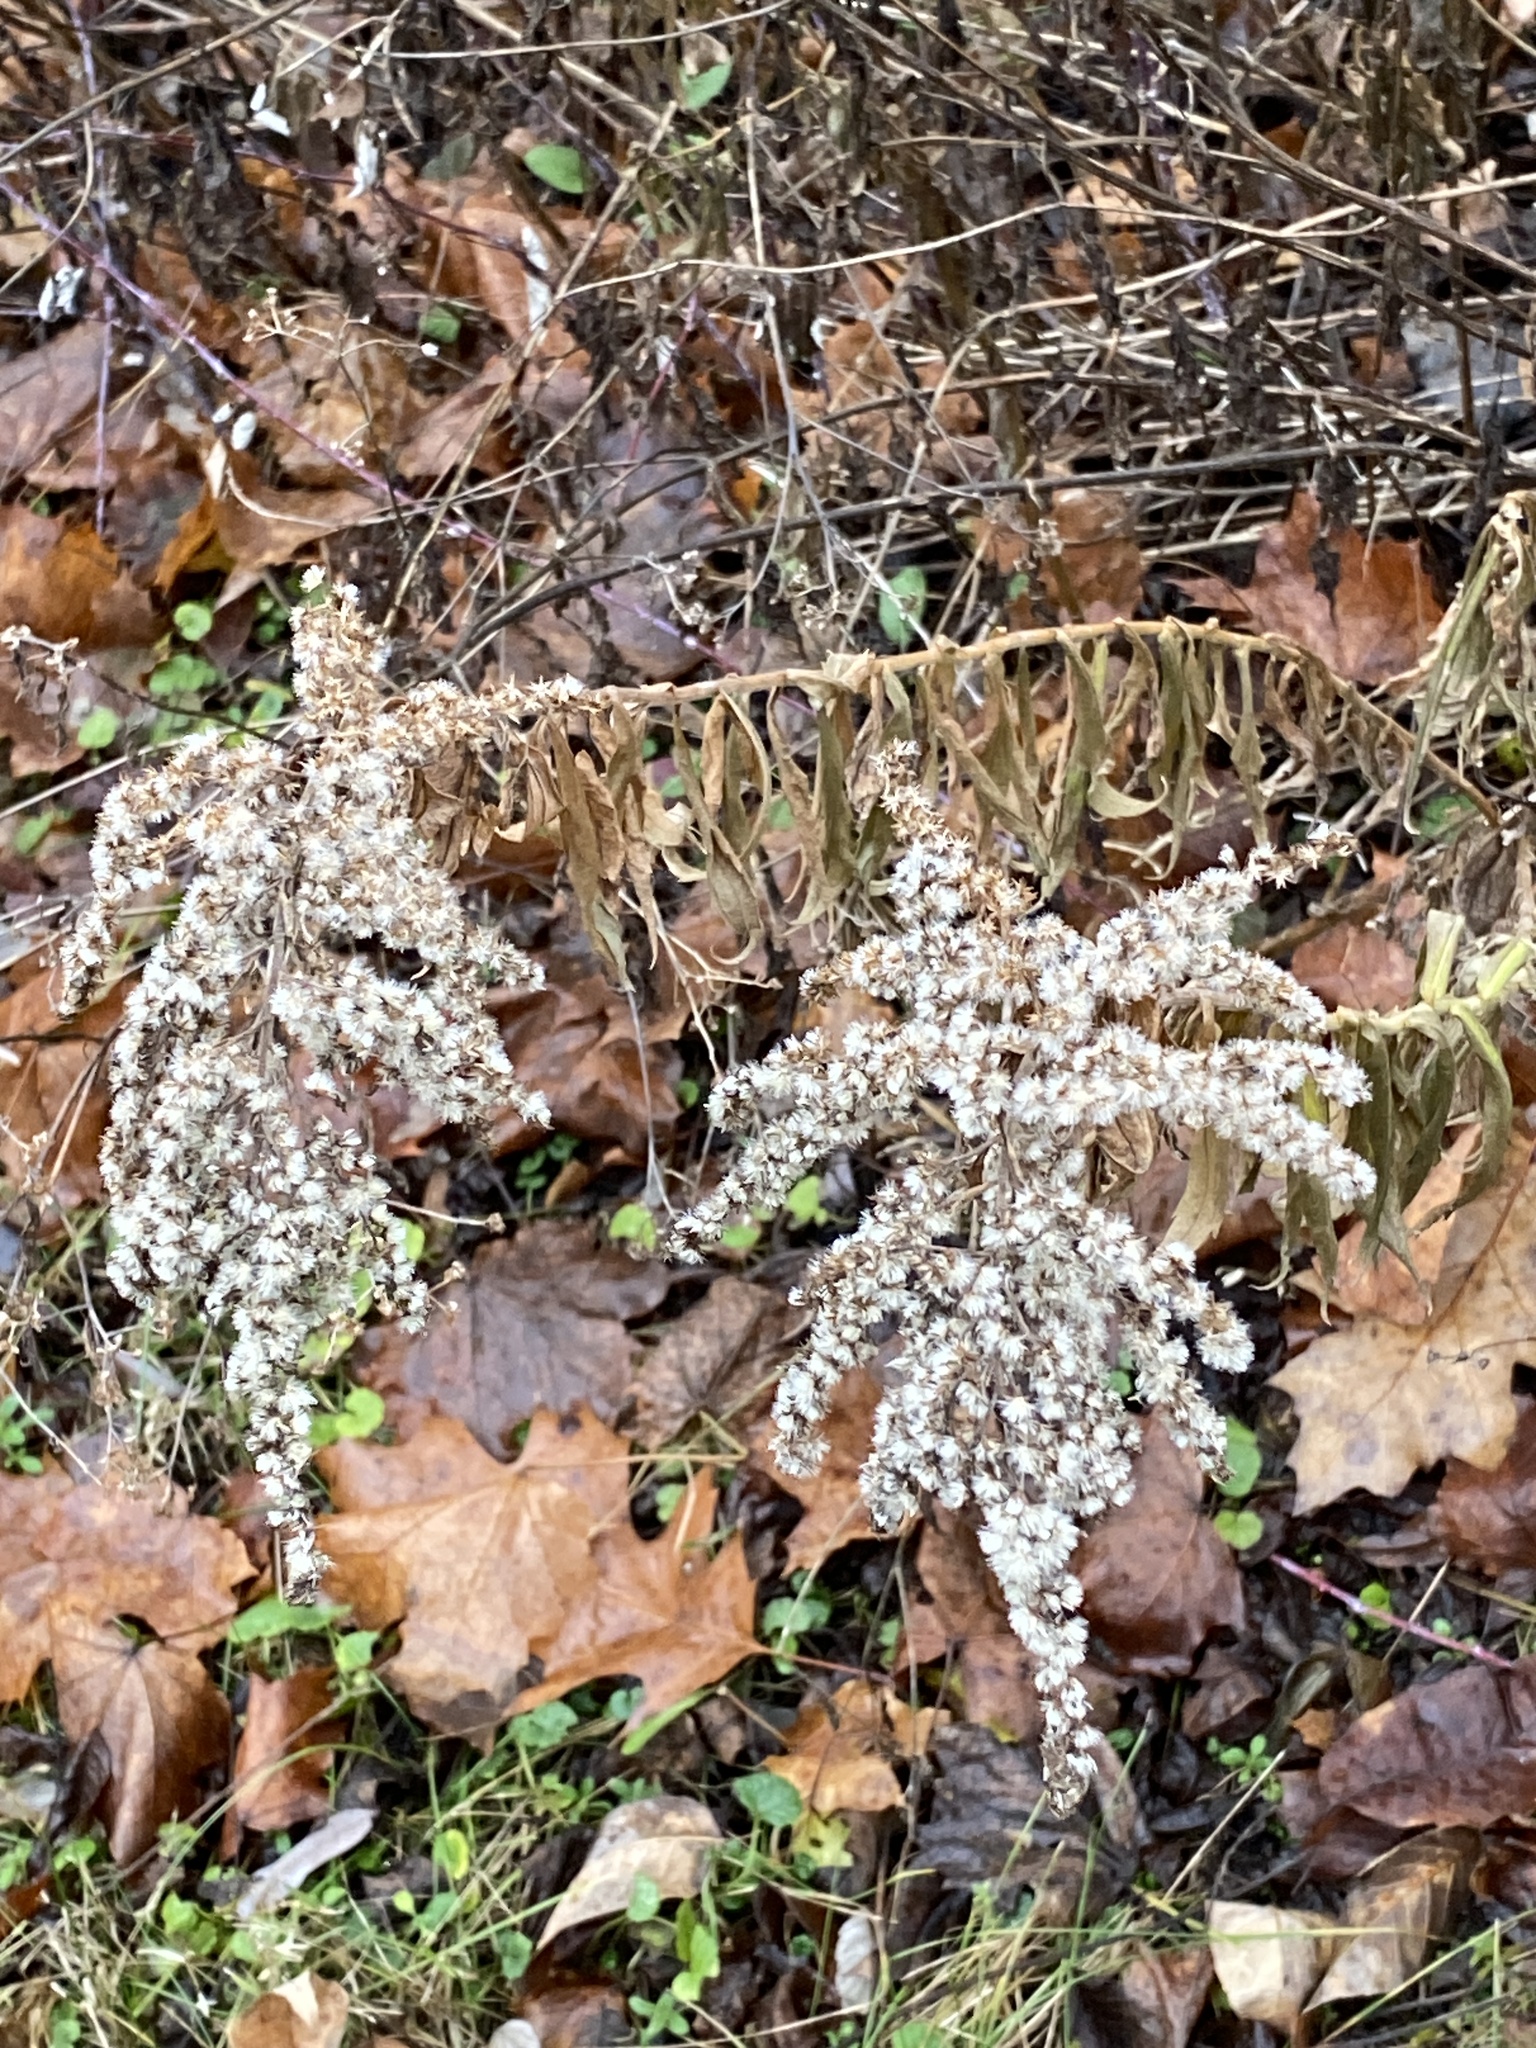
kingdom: Plantae
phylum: Tracheophyta
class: Magnoliopsida
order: Asterales
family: Asteraceae
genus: Solidago
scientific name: Solidago altissima
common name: Late goldenrod
